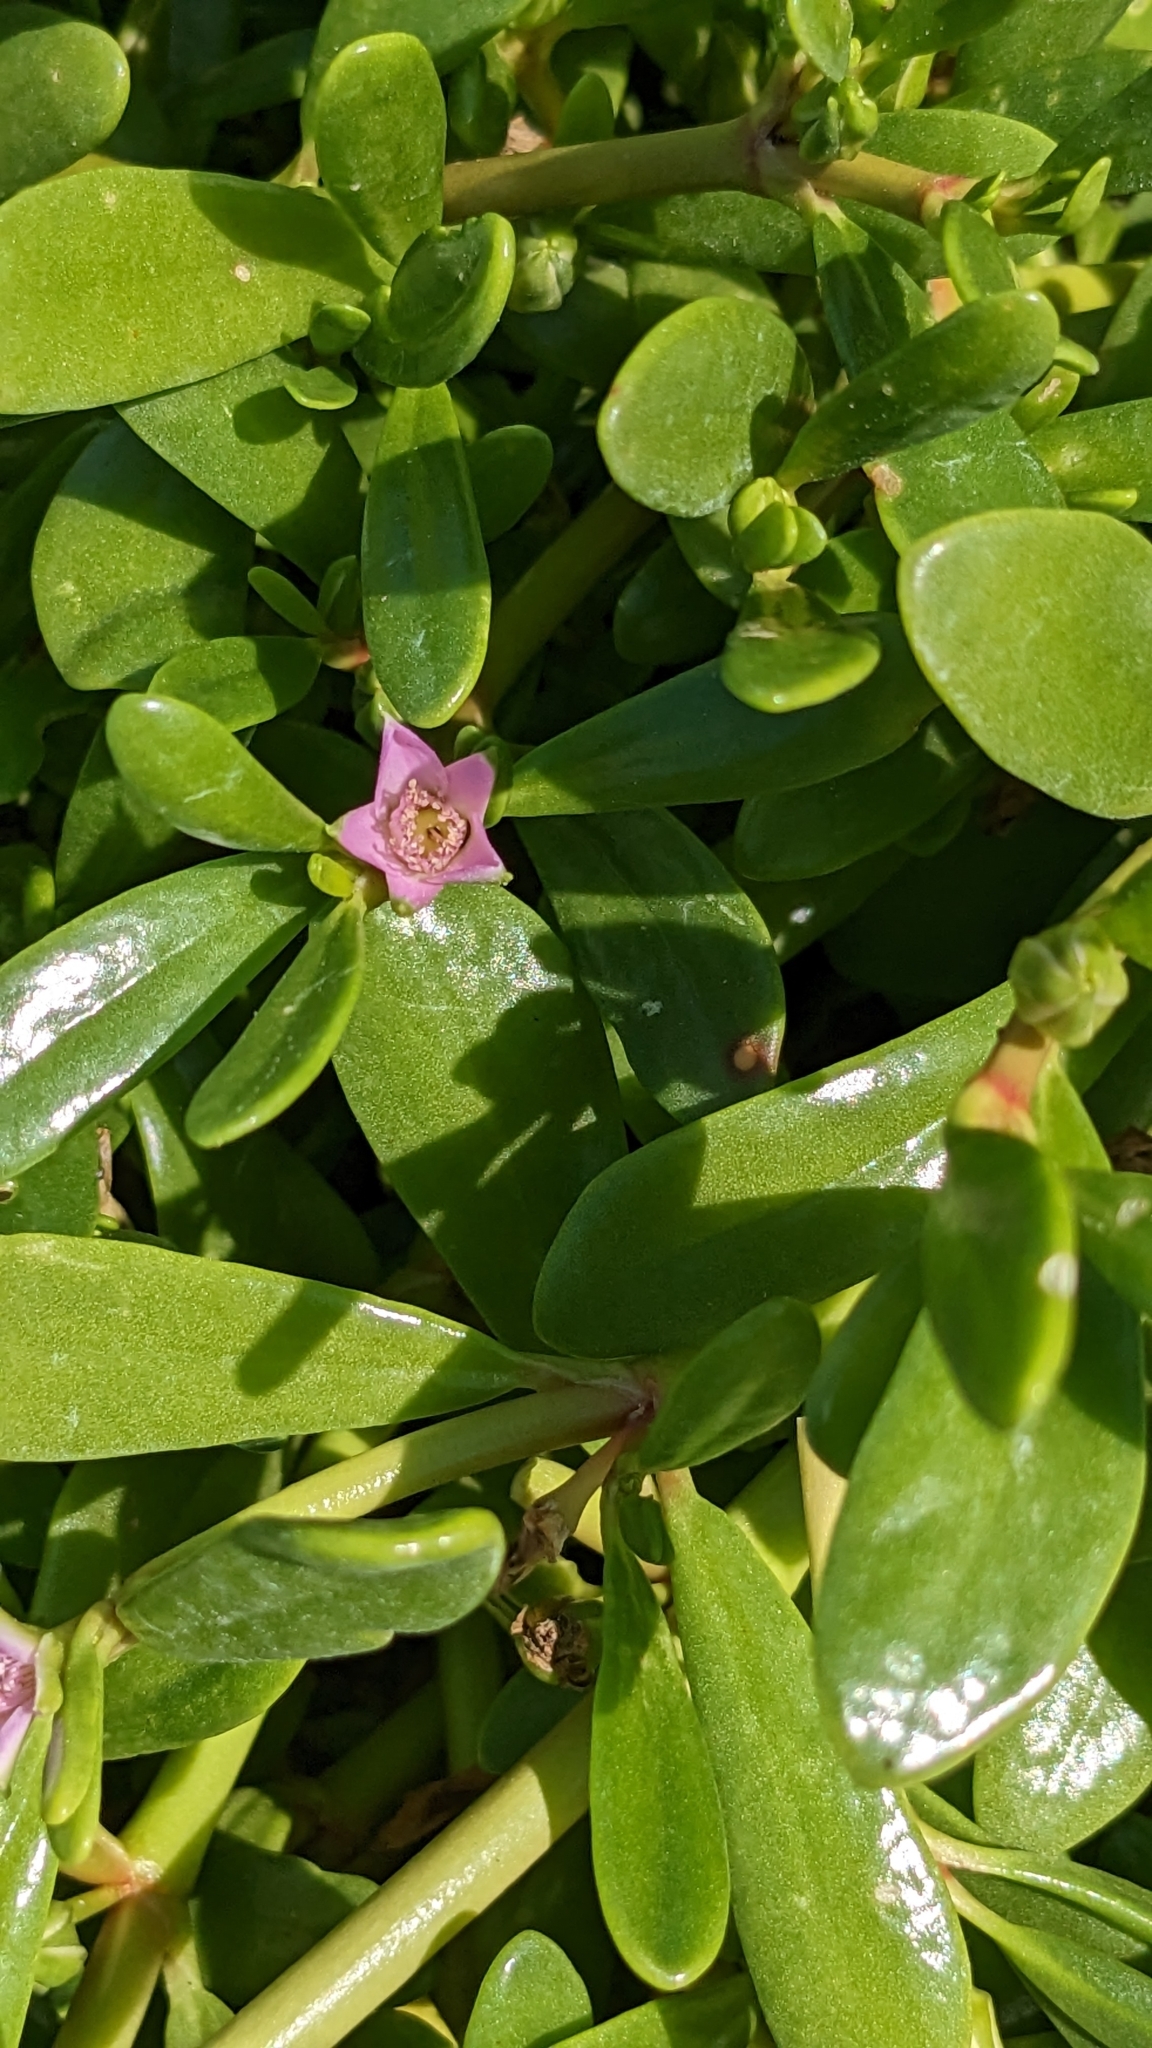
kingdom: Plantae
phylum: Tracheophyta
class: Magnoliopsida
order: Caryophyllales
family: Aizoaceae
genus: Sesuvium
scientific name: Sesuvium portulacastrum
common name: Sea-purslane
